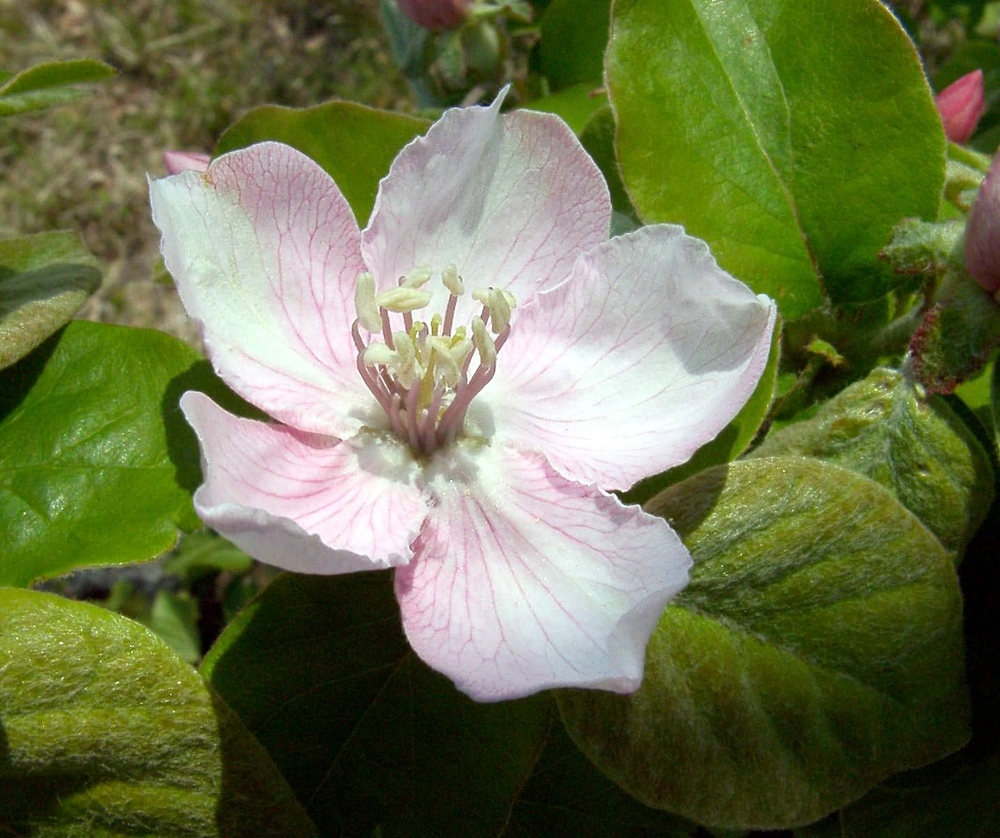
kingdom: Plantae
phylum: Tracheophyta
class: Magnoliopsida
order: Rosales
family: Rosaceae
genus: Cydonia
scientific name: Cydonia oblonga
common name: Quince
